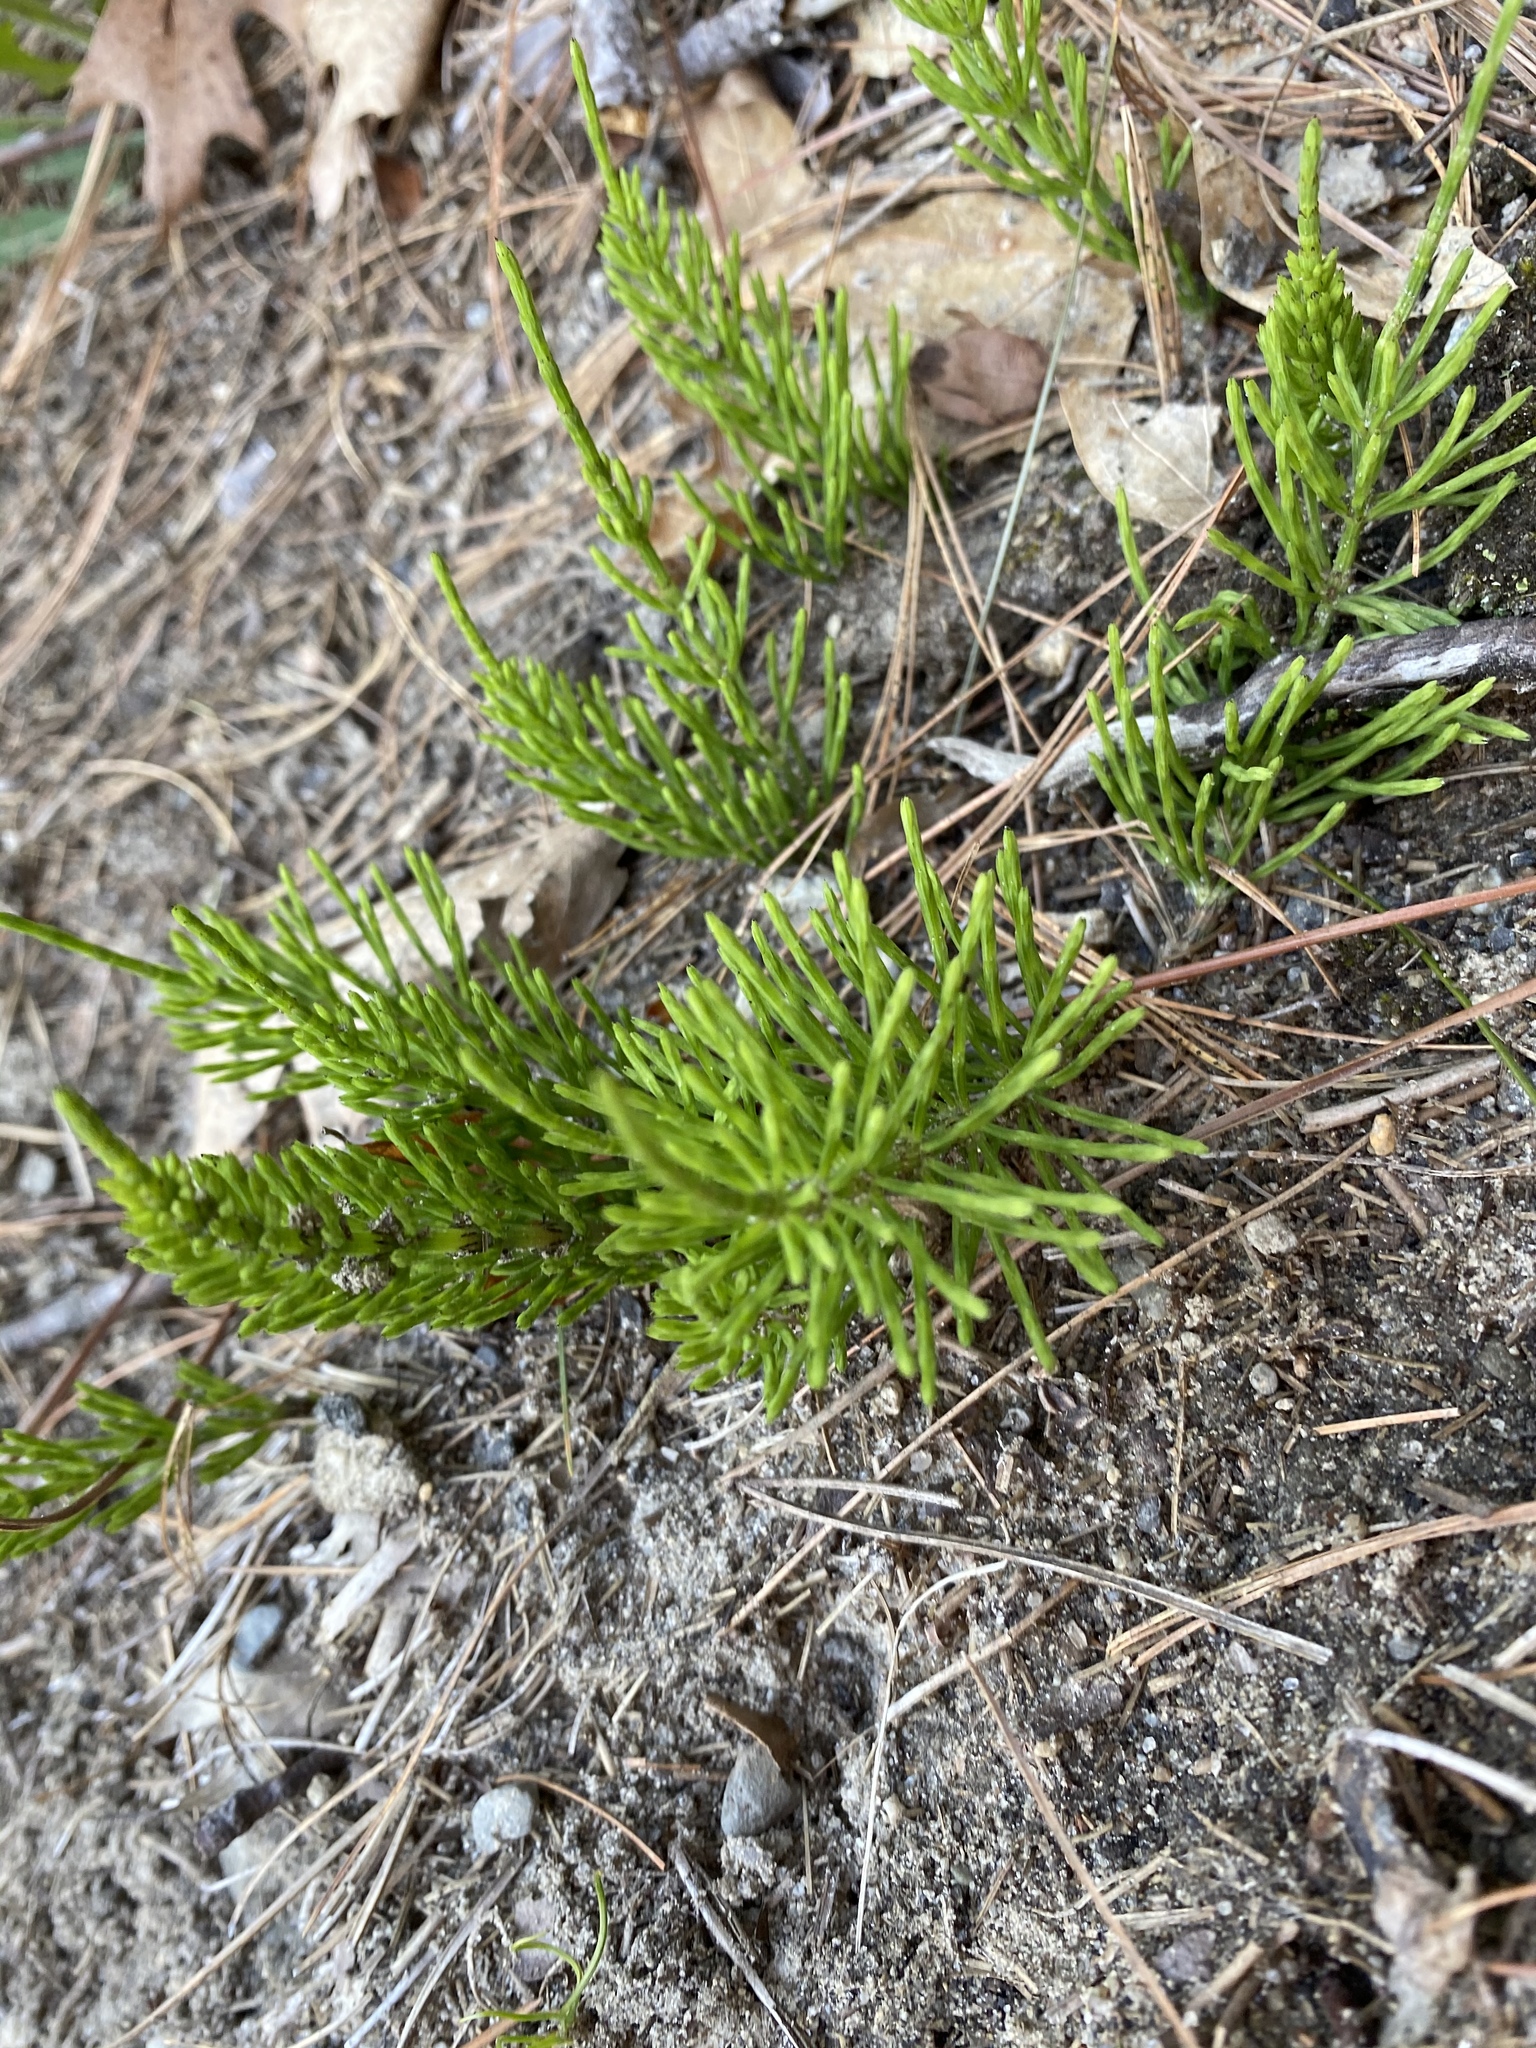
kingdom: Plantae
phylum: Tracheophyta
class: Polypodiopsida
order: Equisetales
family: Equisetaceae
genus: Equisetum
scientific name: Equisetum arvense
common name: Field horsetail
